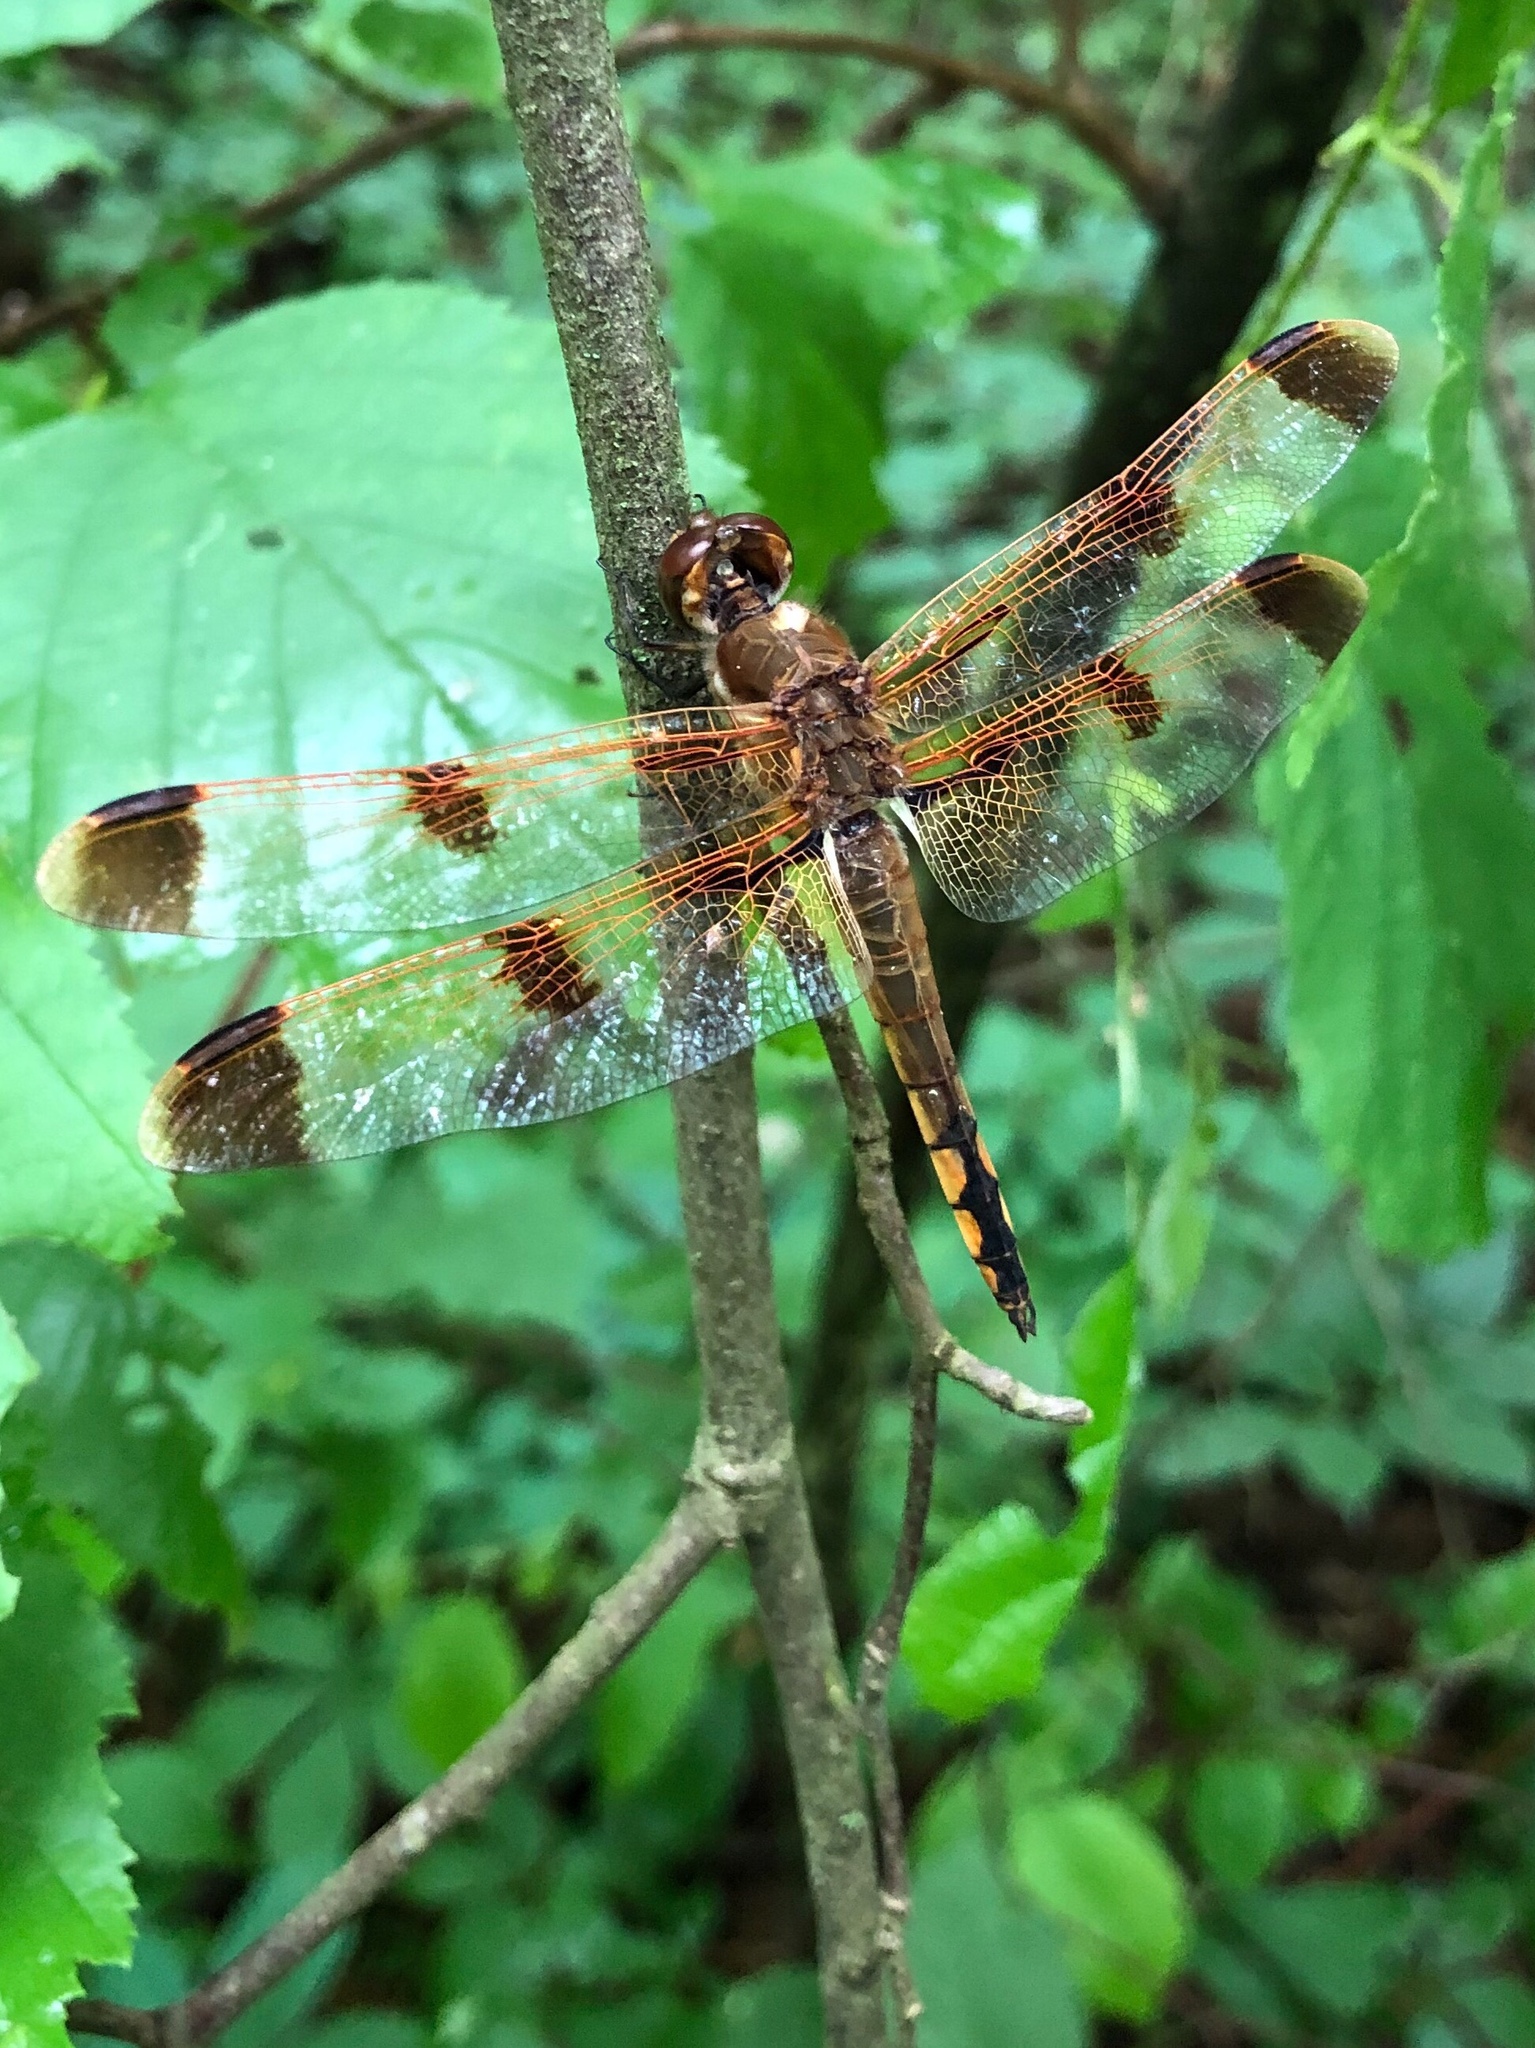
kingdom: Animalia
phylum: Arthropoda
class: Insecta
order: Odonata
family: Libellulidae
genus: Libellula
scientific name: Libellula semifasciata
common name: Painted skimmer
